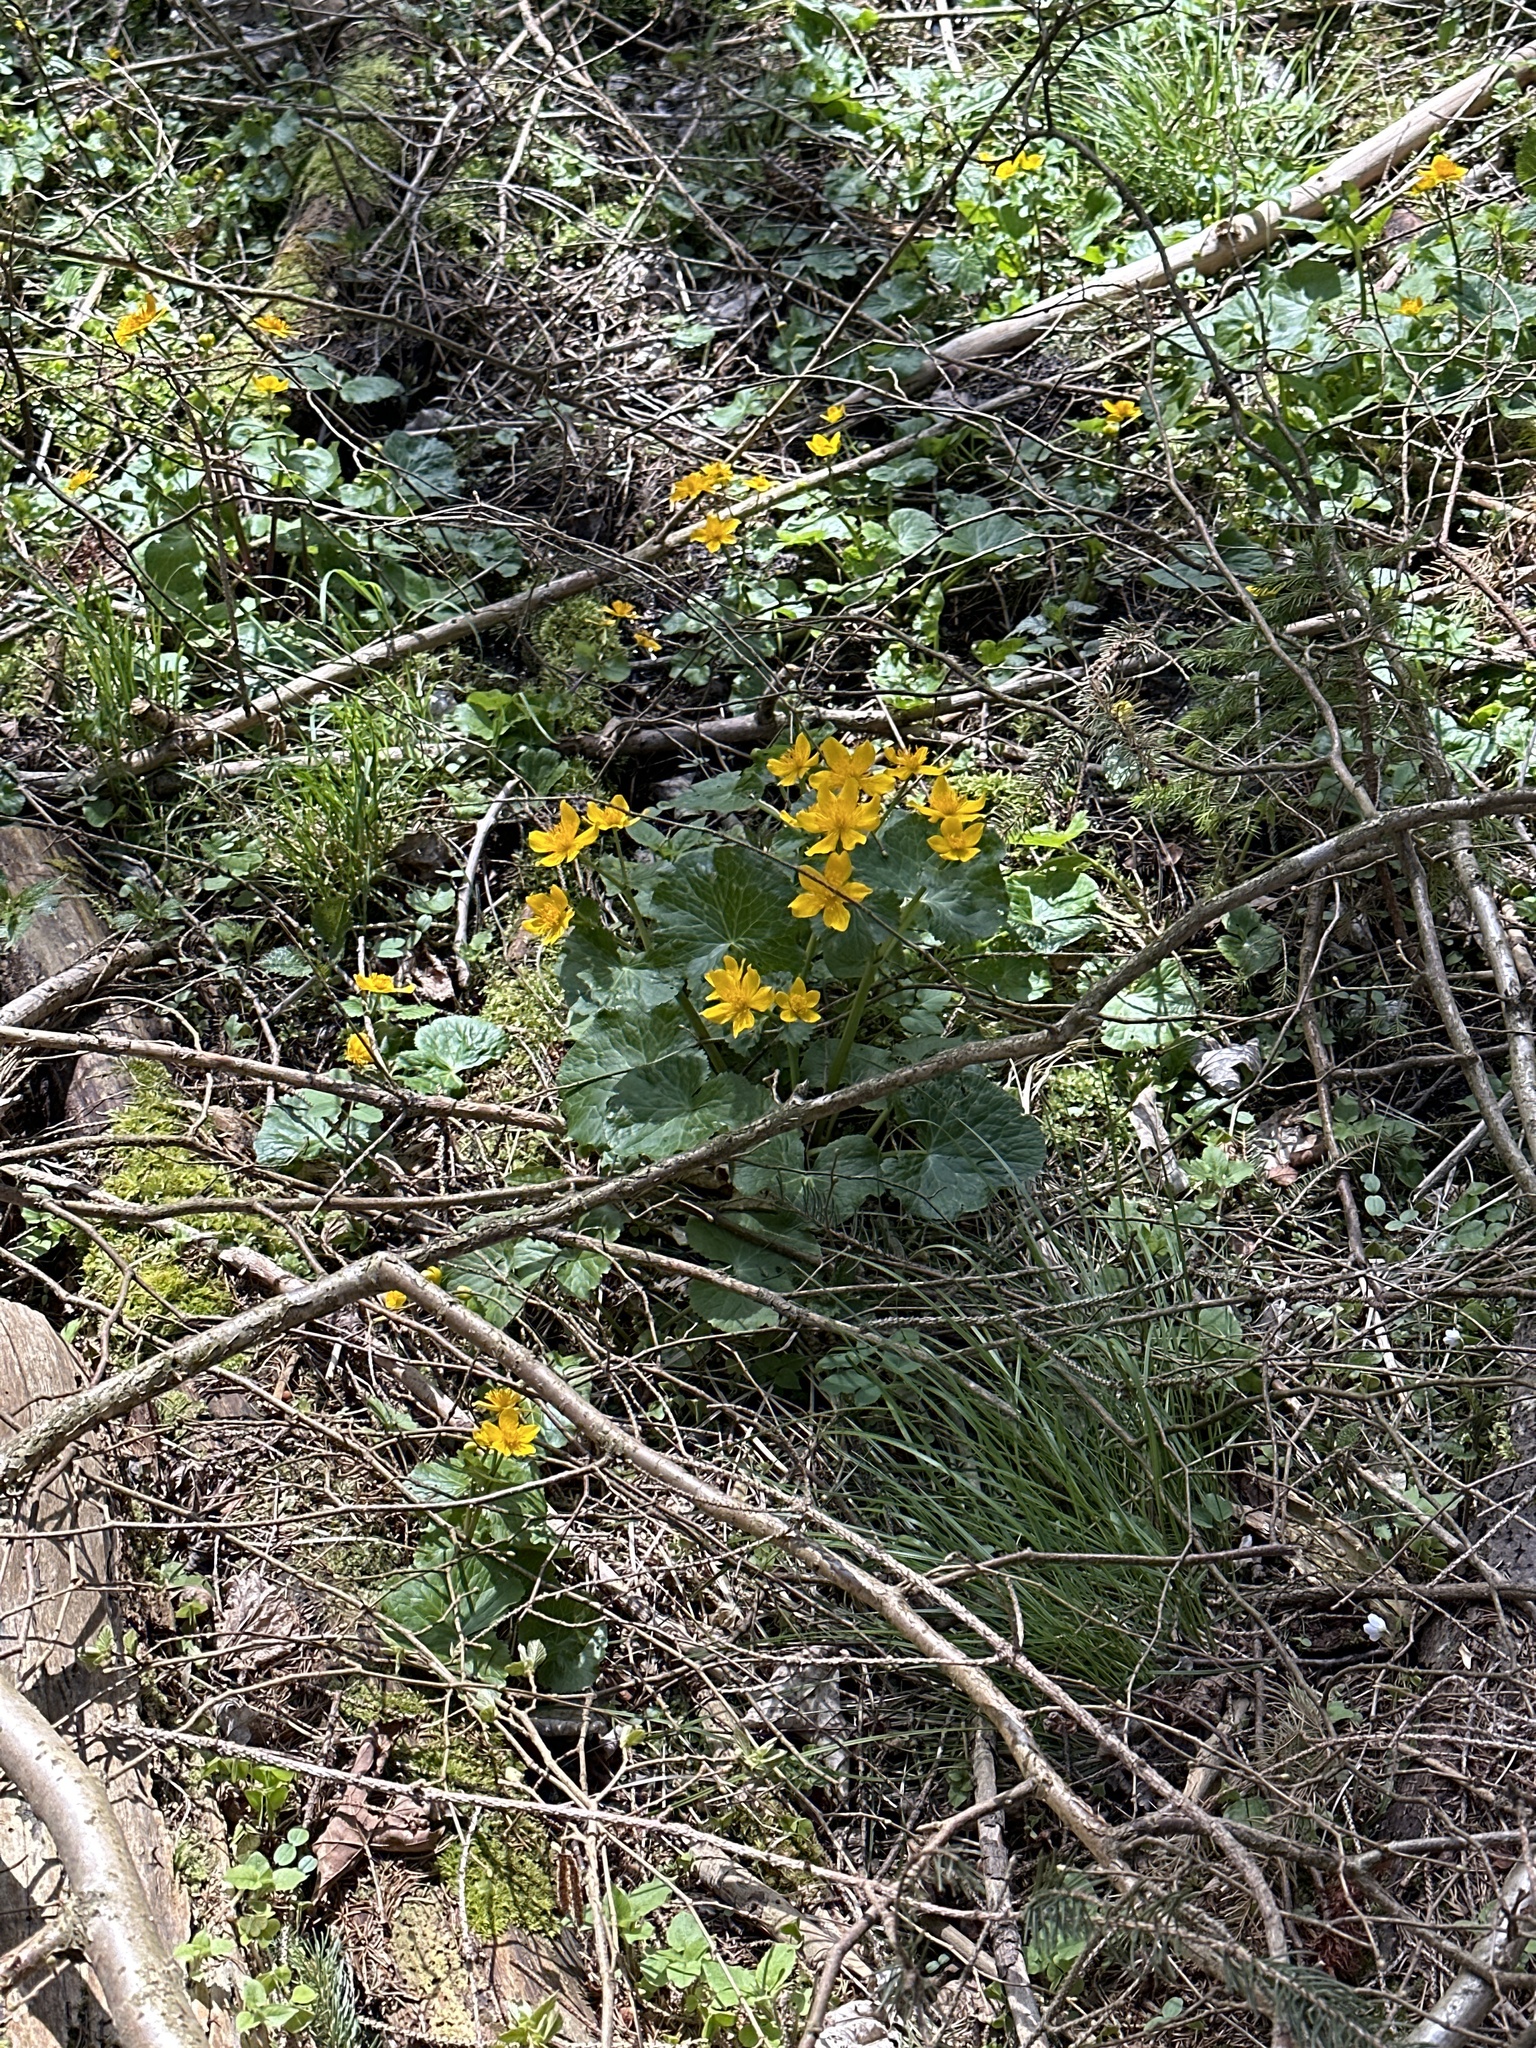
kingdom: Plantae
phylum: Tracheophyta
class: Magnoliopsida
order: Ranunculales
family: Ranunculaceae
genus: Caltha
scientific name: Caltha palustris
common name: Marsh marigold
